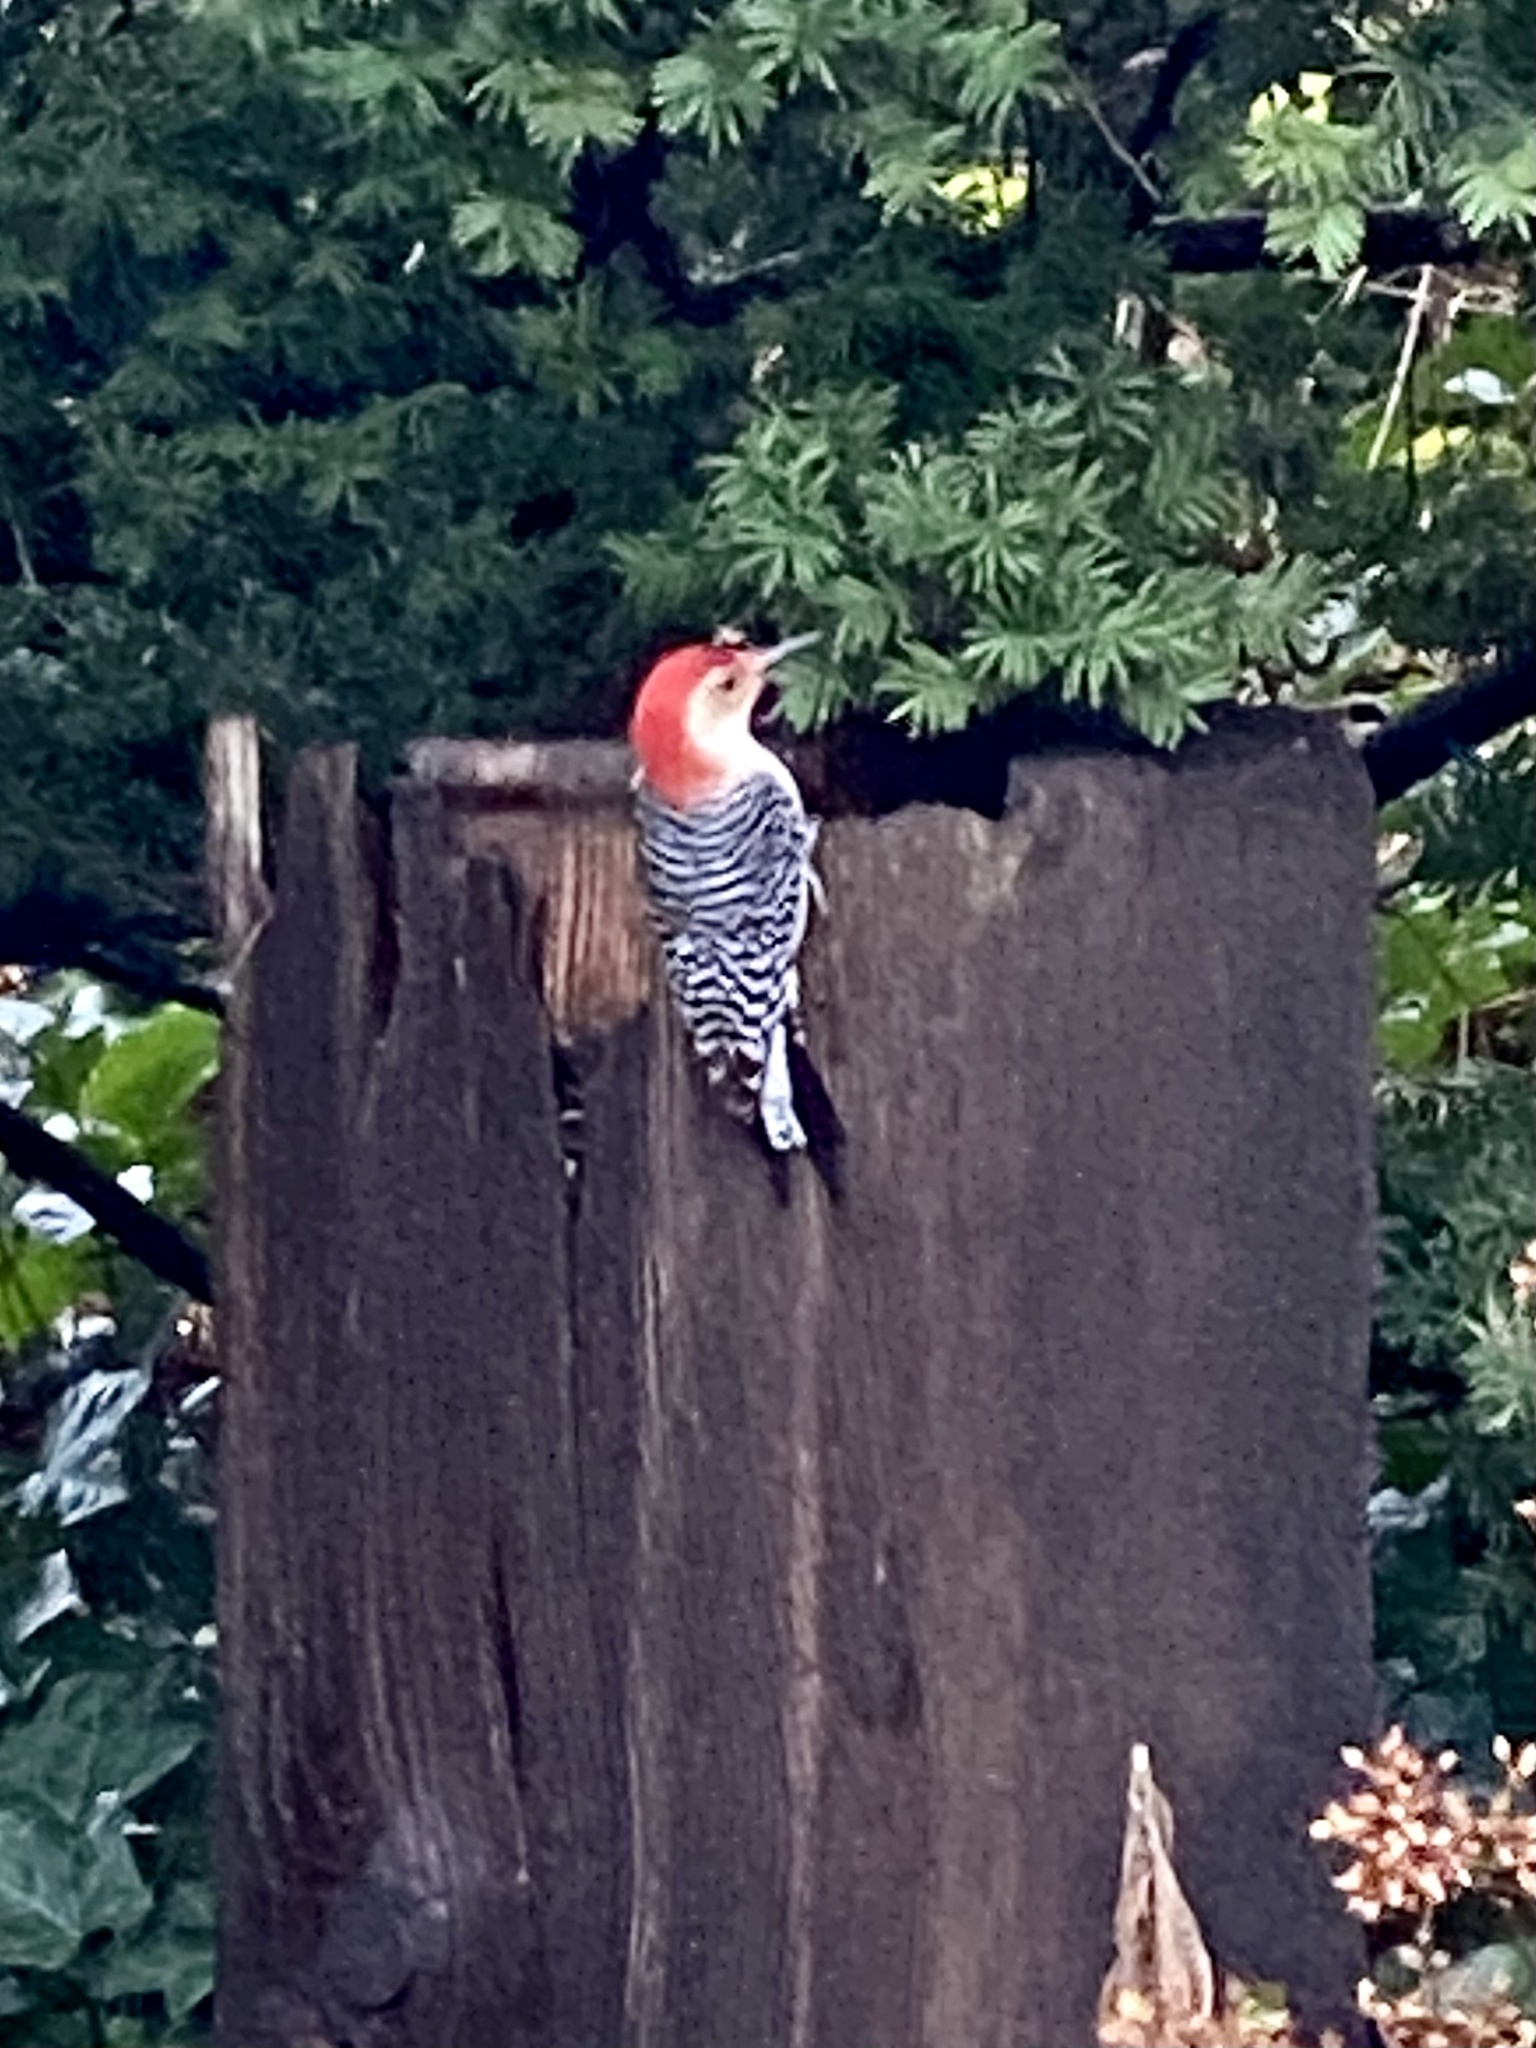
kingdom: Animalia
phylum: Chordata
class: Aves
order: Piciformes
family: Picidae
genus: Melanerpes
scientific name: Melanerpes carolinus
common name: Red-bellied woodpecker
